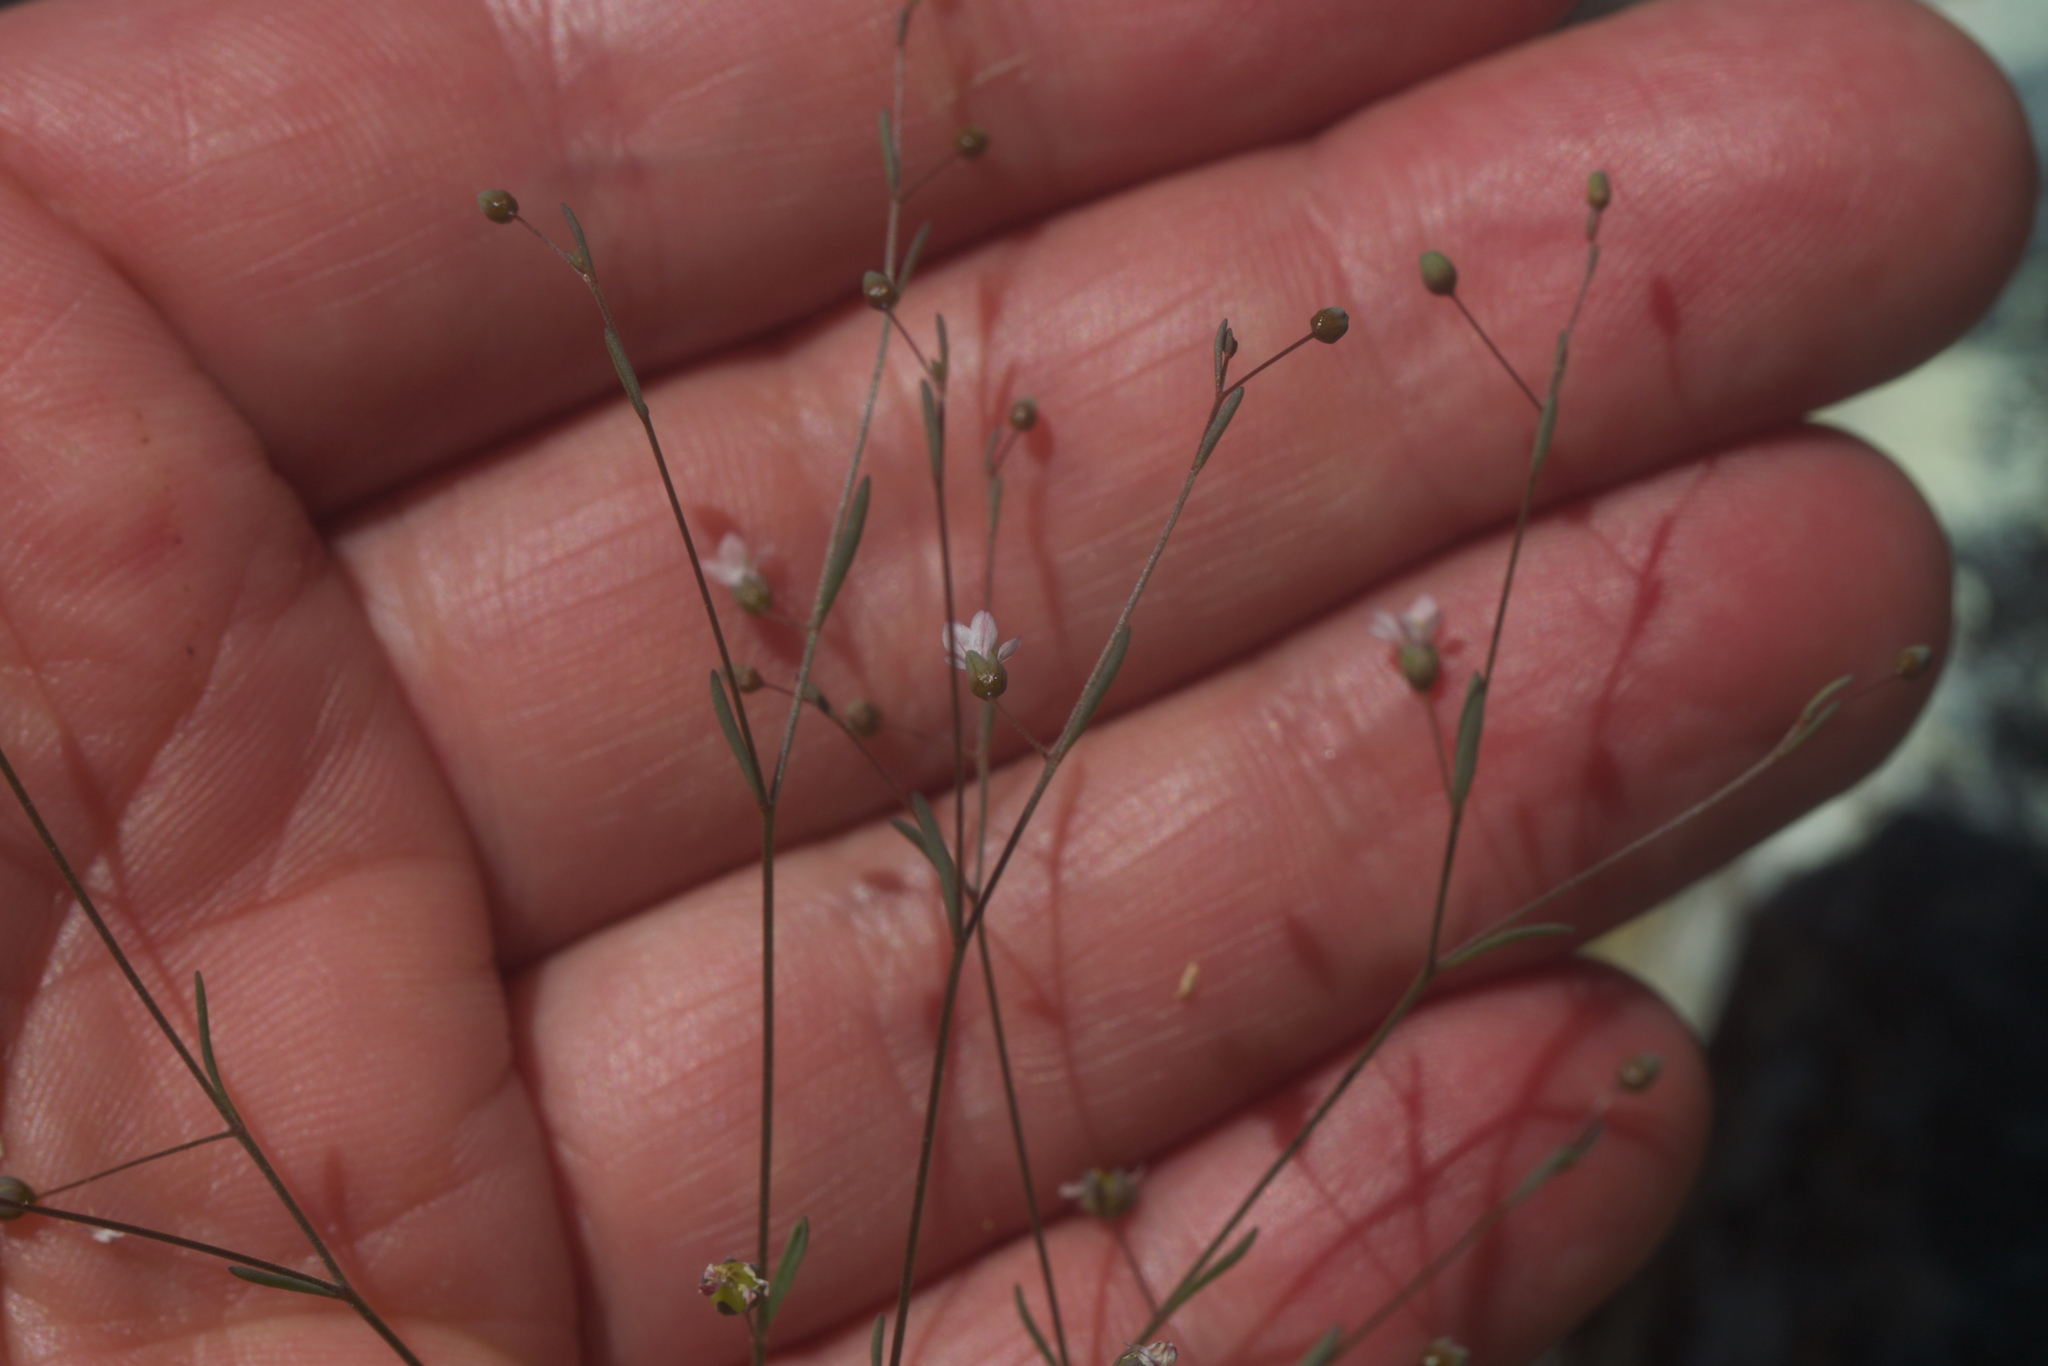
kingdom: Plantae
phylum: Tracheophyta
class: Magnoliopsida
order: Malpighiales
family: Linaceae
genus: Hesperolinon
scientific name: Hesperolinon micranthum
